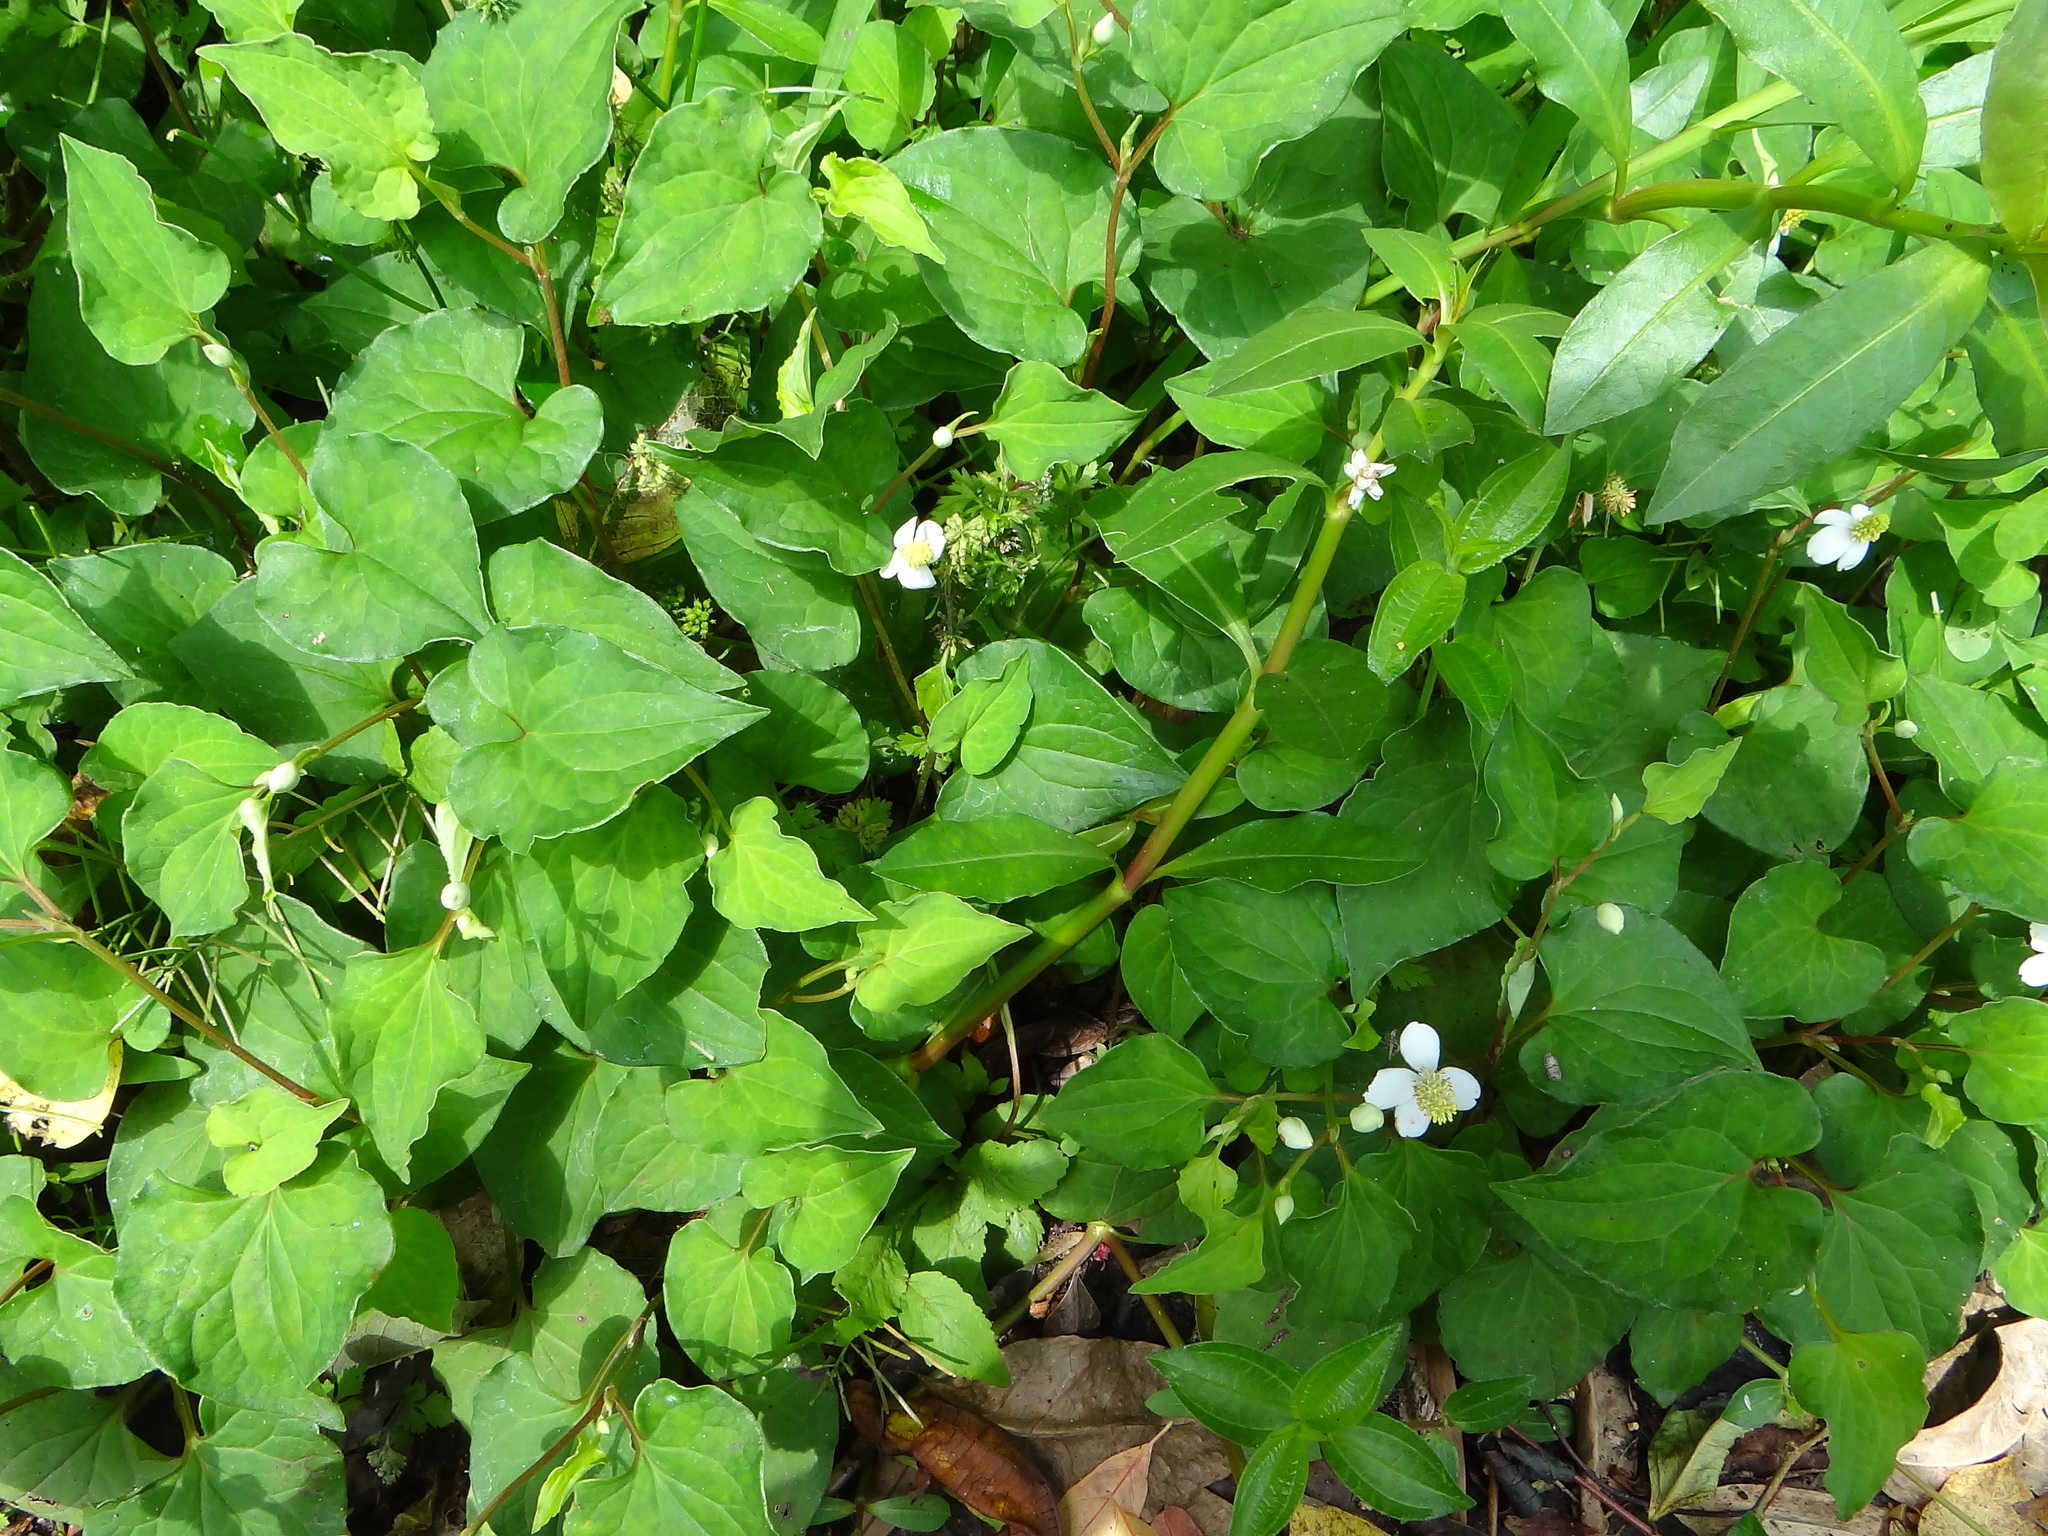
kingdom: Plantae
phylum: Tracheophyta
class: Magnoliopsida
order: Piperales
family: Saururaceae
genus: Houttuynia
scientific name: Houttuynia cordata
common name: Chameleon
